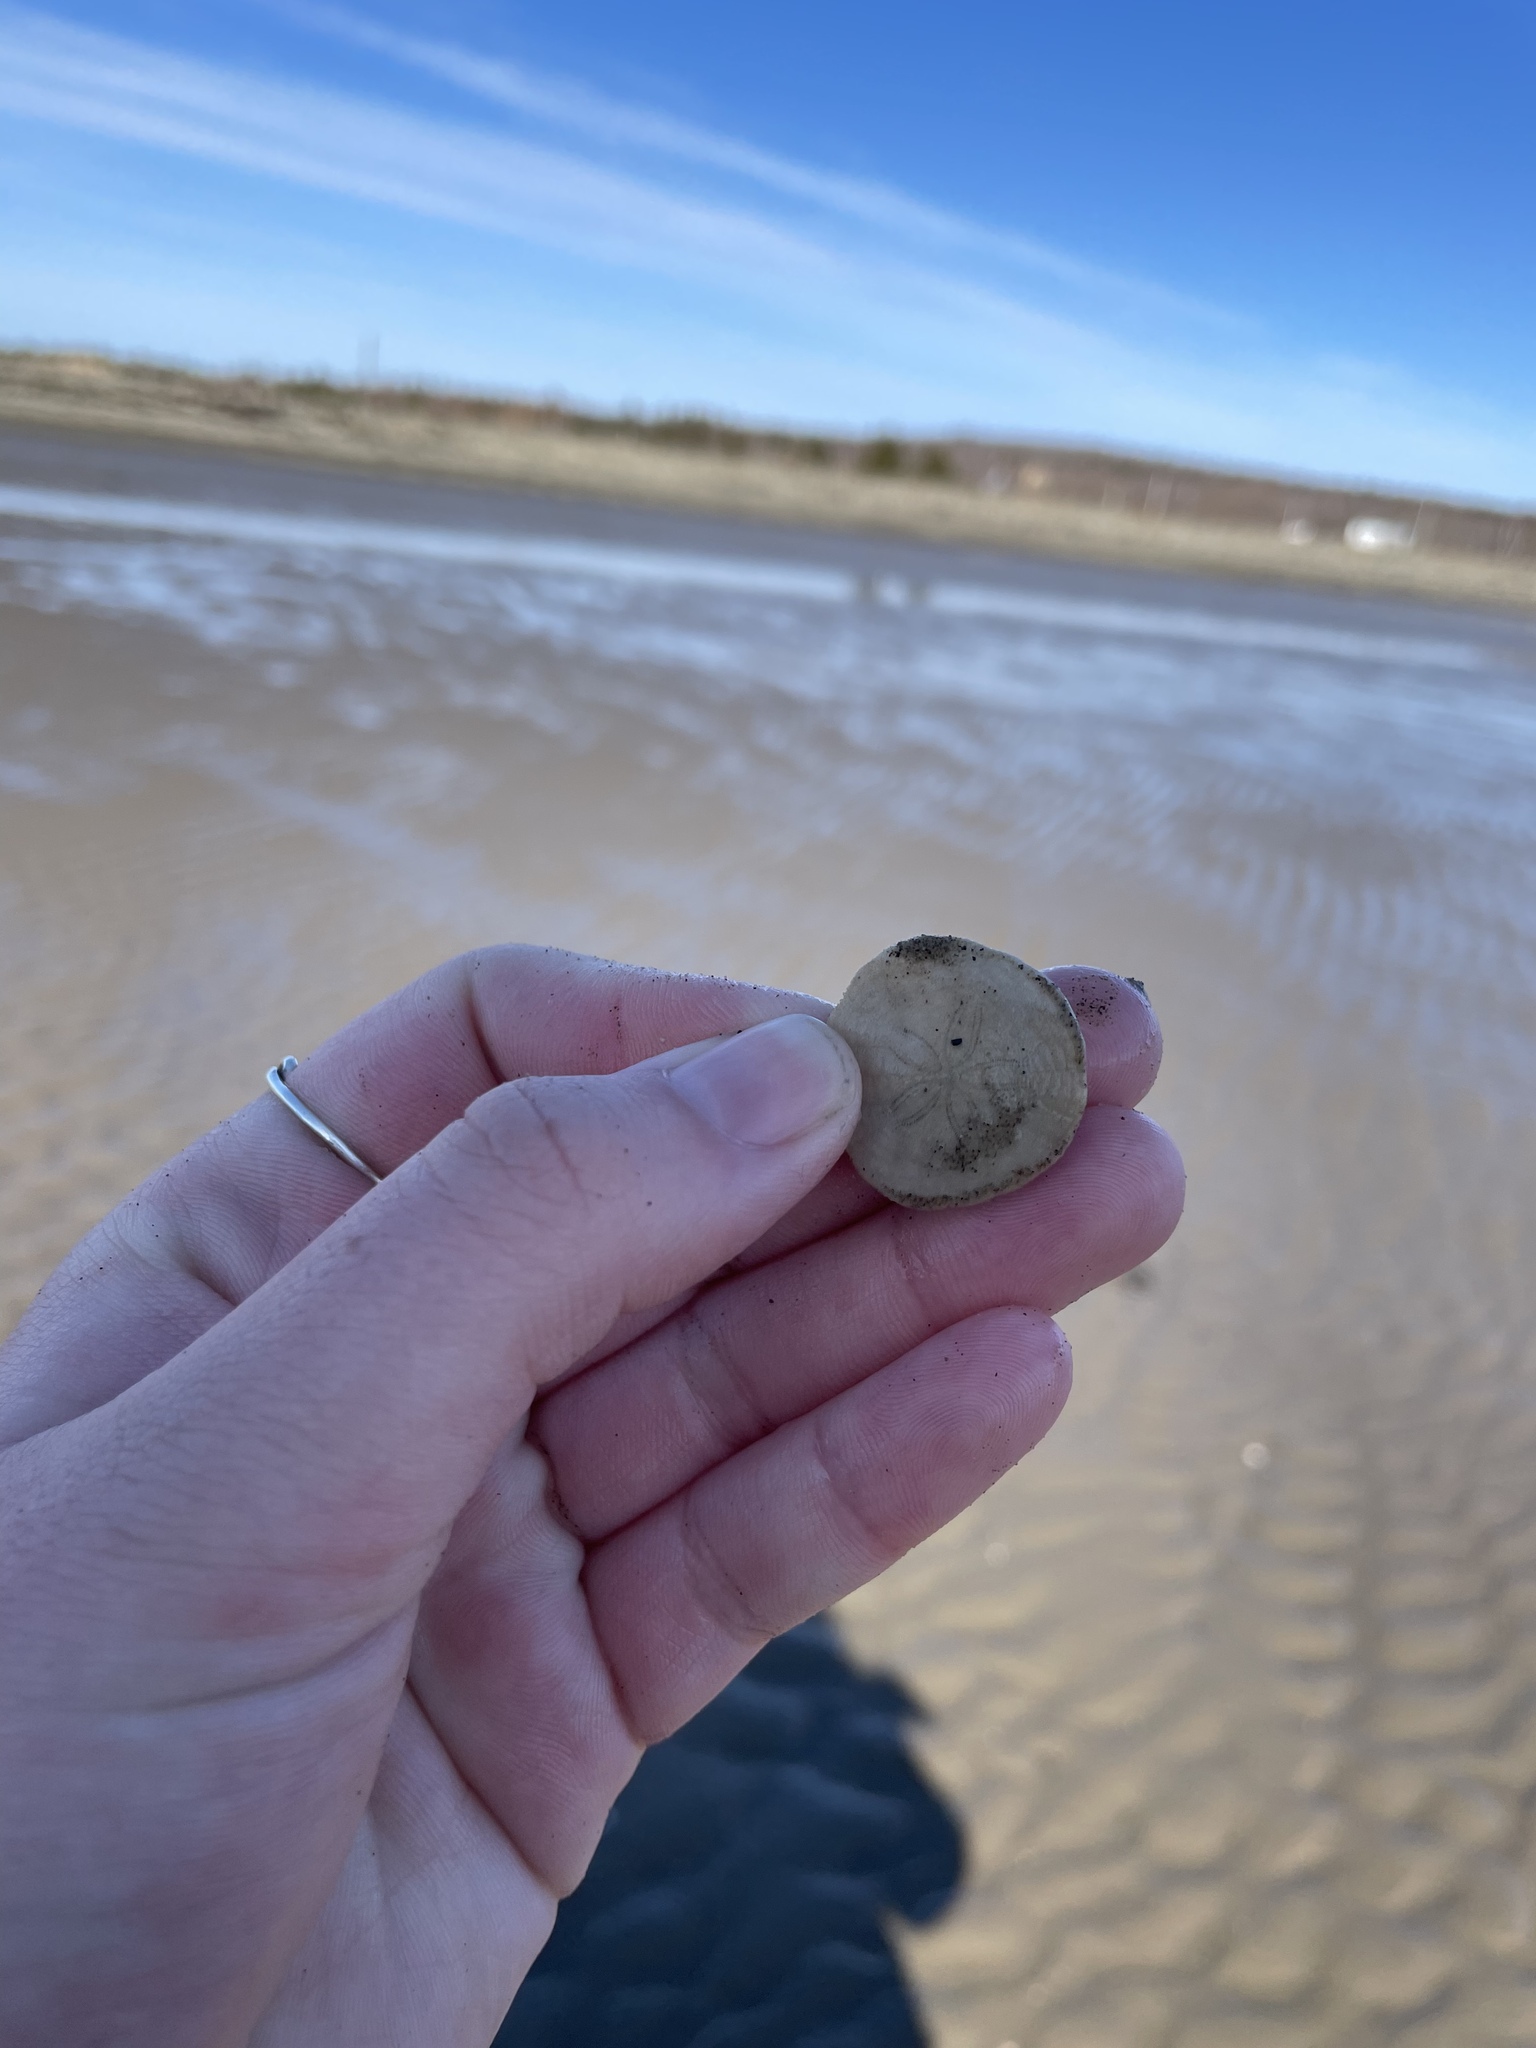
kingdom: Animalia
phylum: Echinodermata
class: Echinoidea
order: Echinolampadacea
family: Echinarachniidae
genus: Echinarachnius
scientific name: Echinarachnius parma
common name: Common sand dollar
